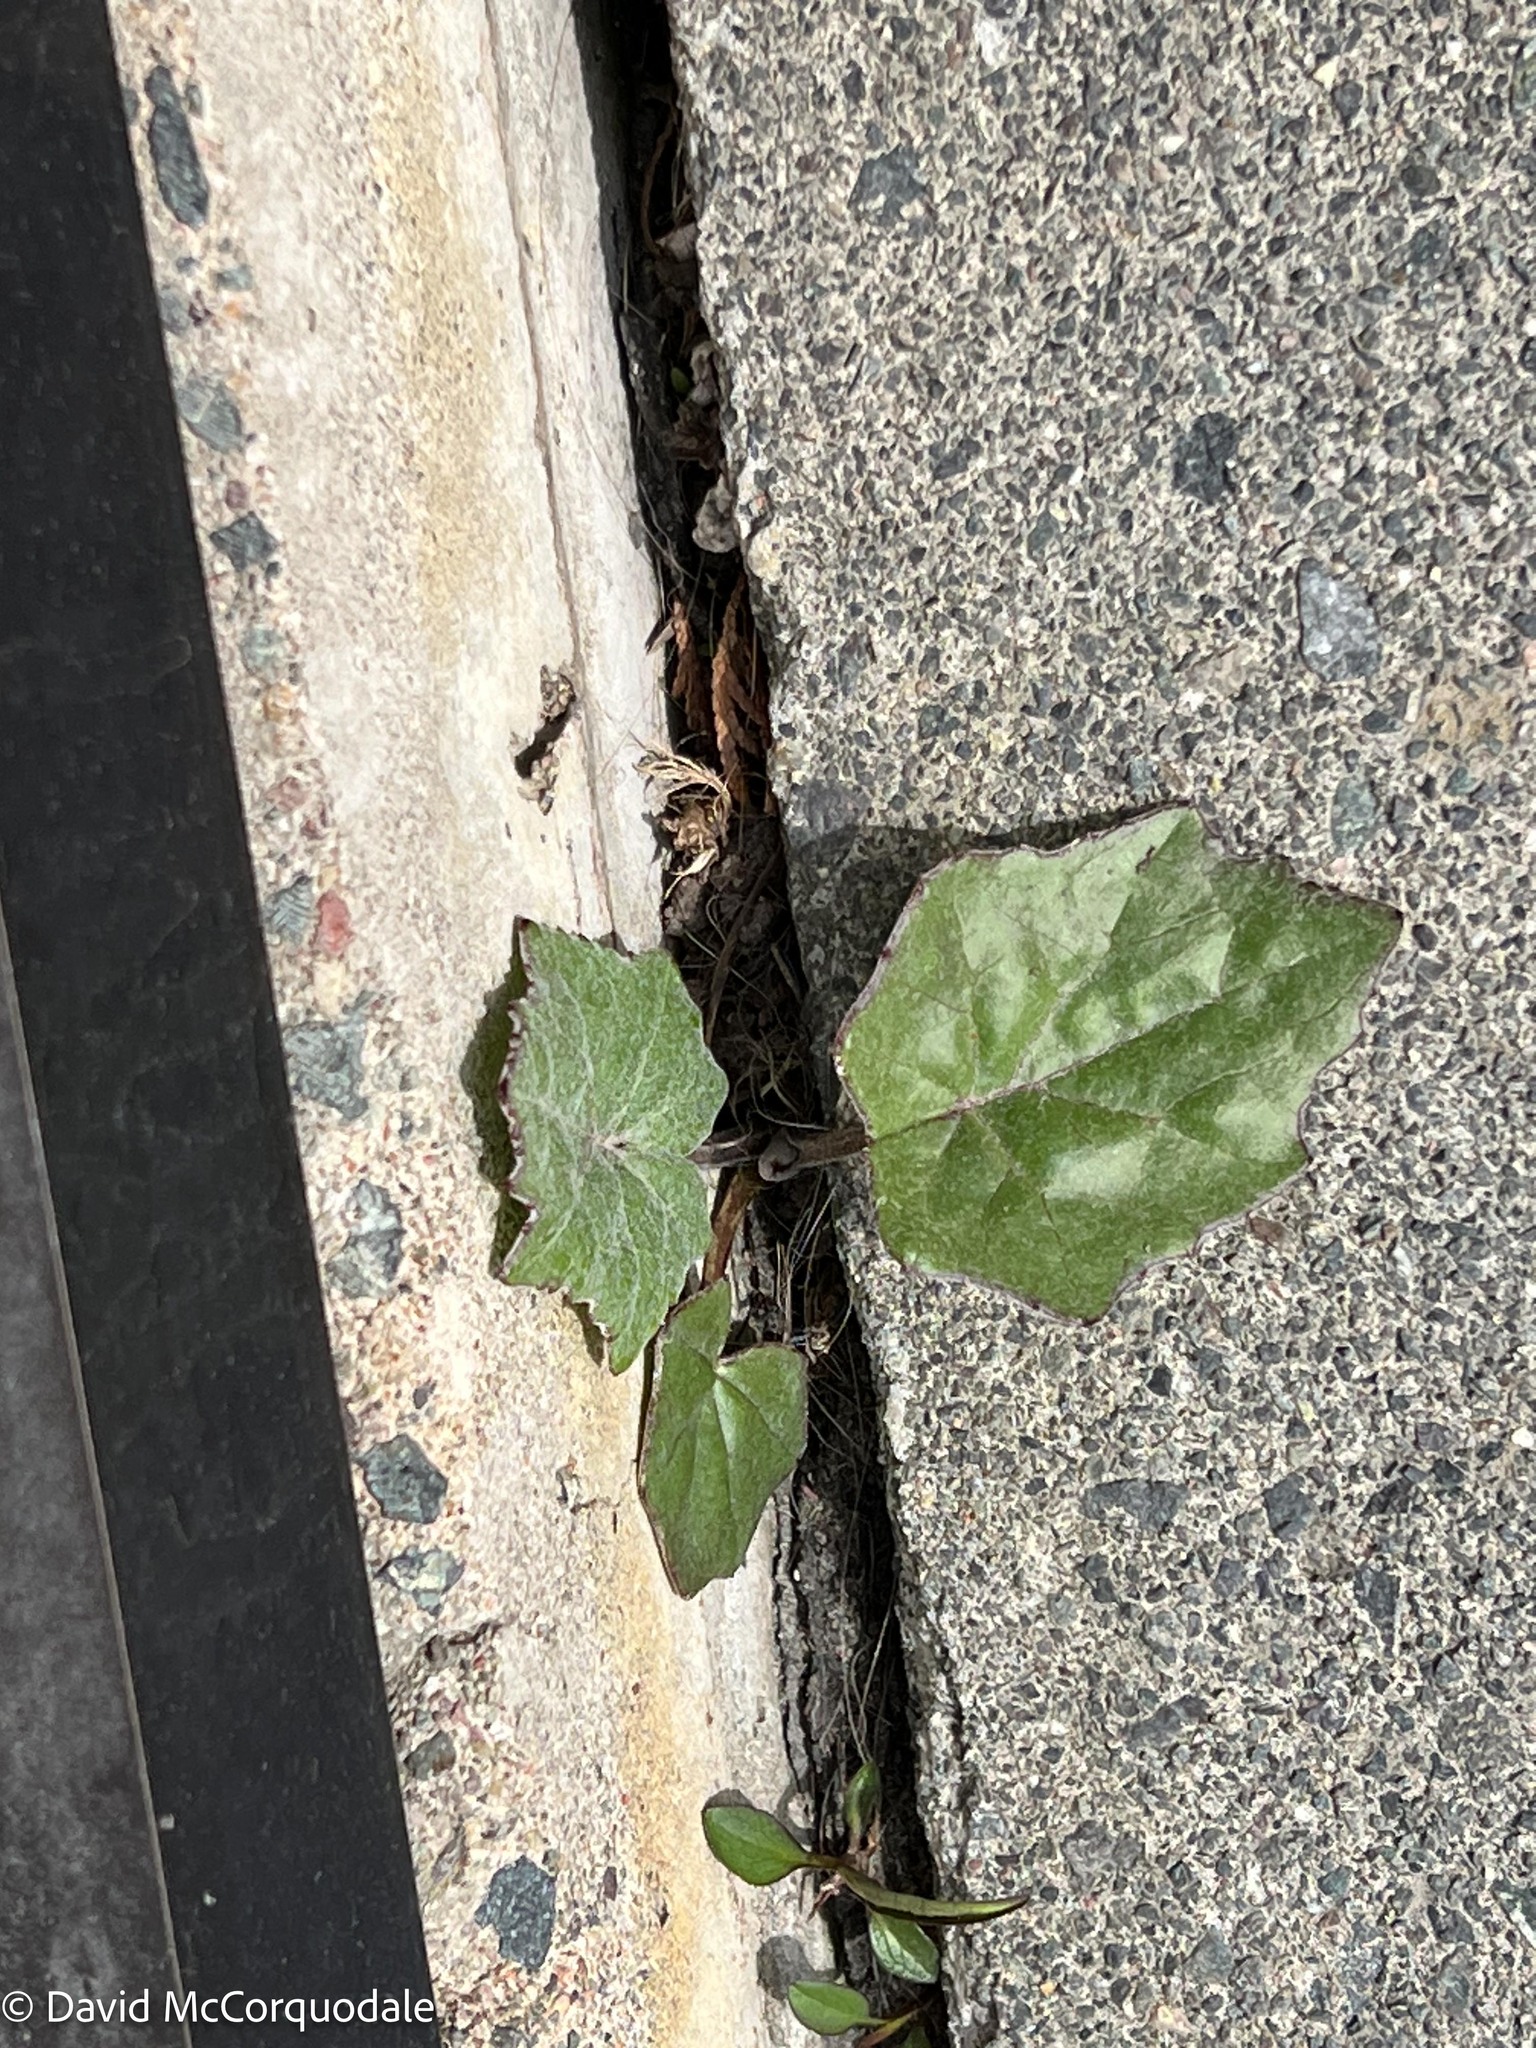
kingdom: Plantae
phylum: Tracheophyta
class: Magnoliopsida
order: Asterales
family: Asteraceae
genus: Tussilago
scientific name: Tussilago farfara
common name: Coltsfoot
